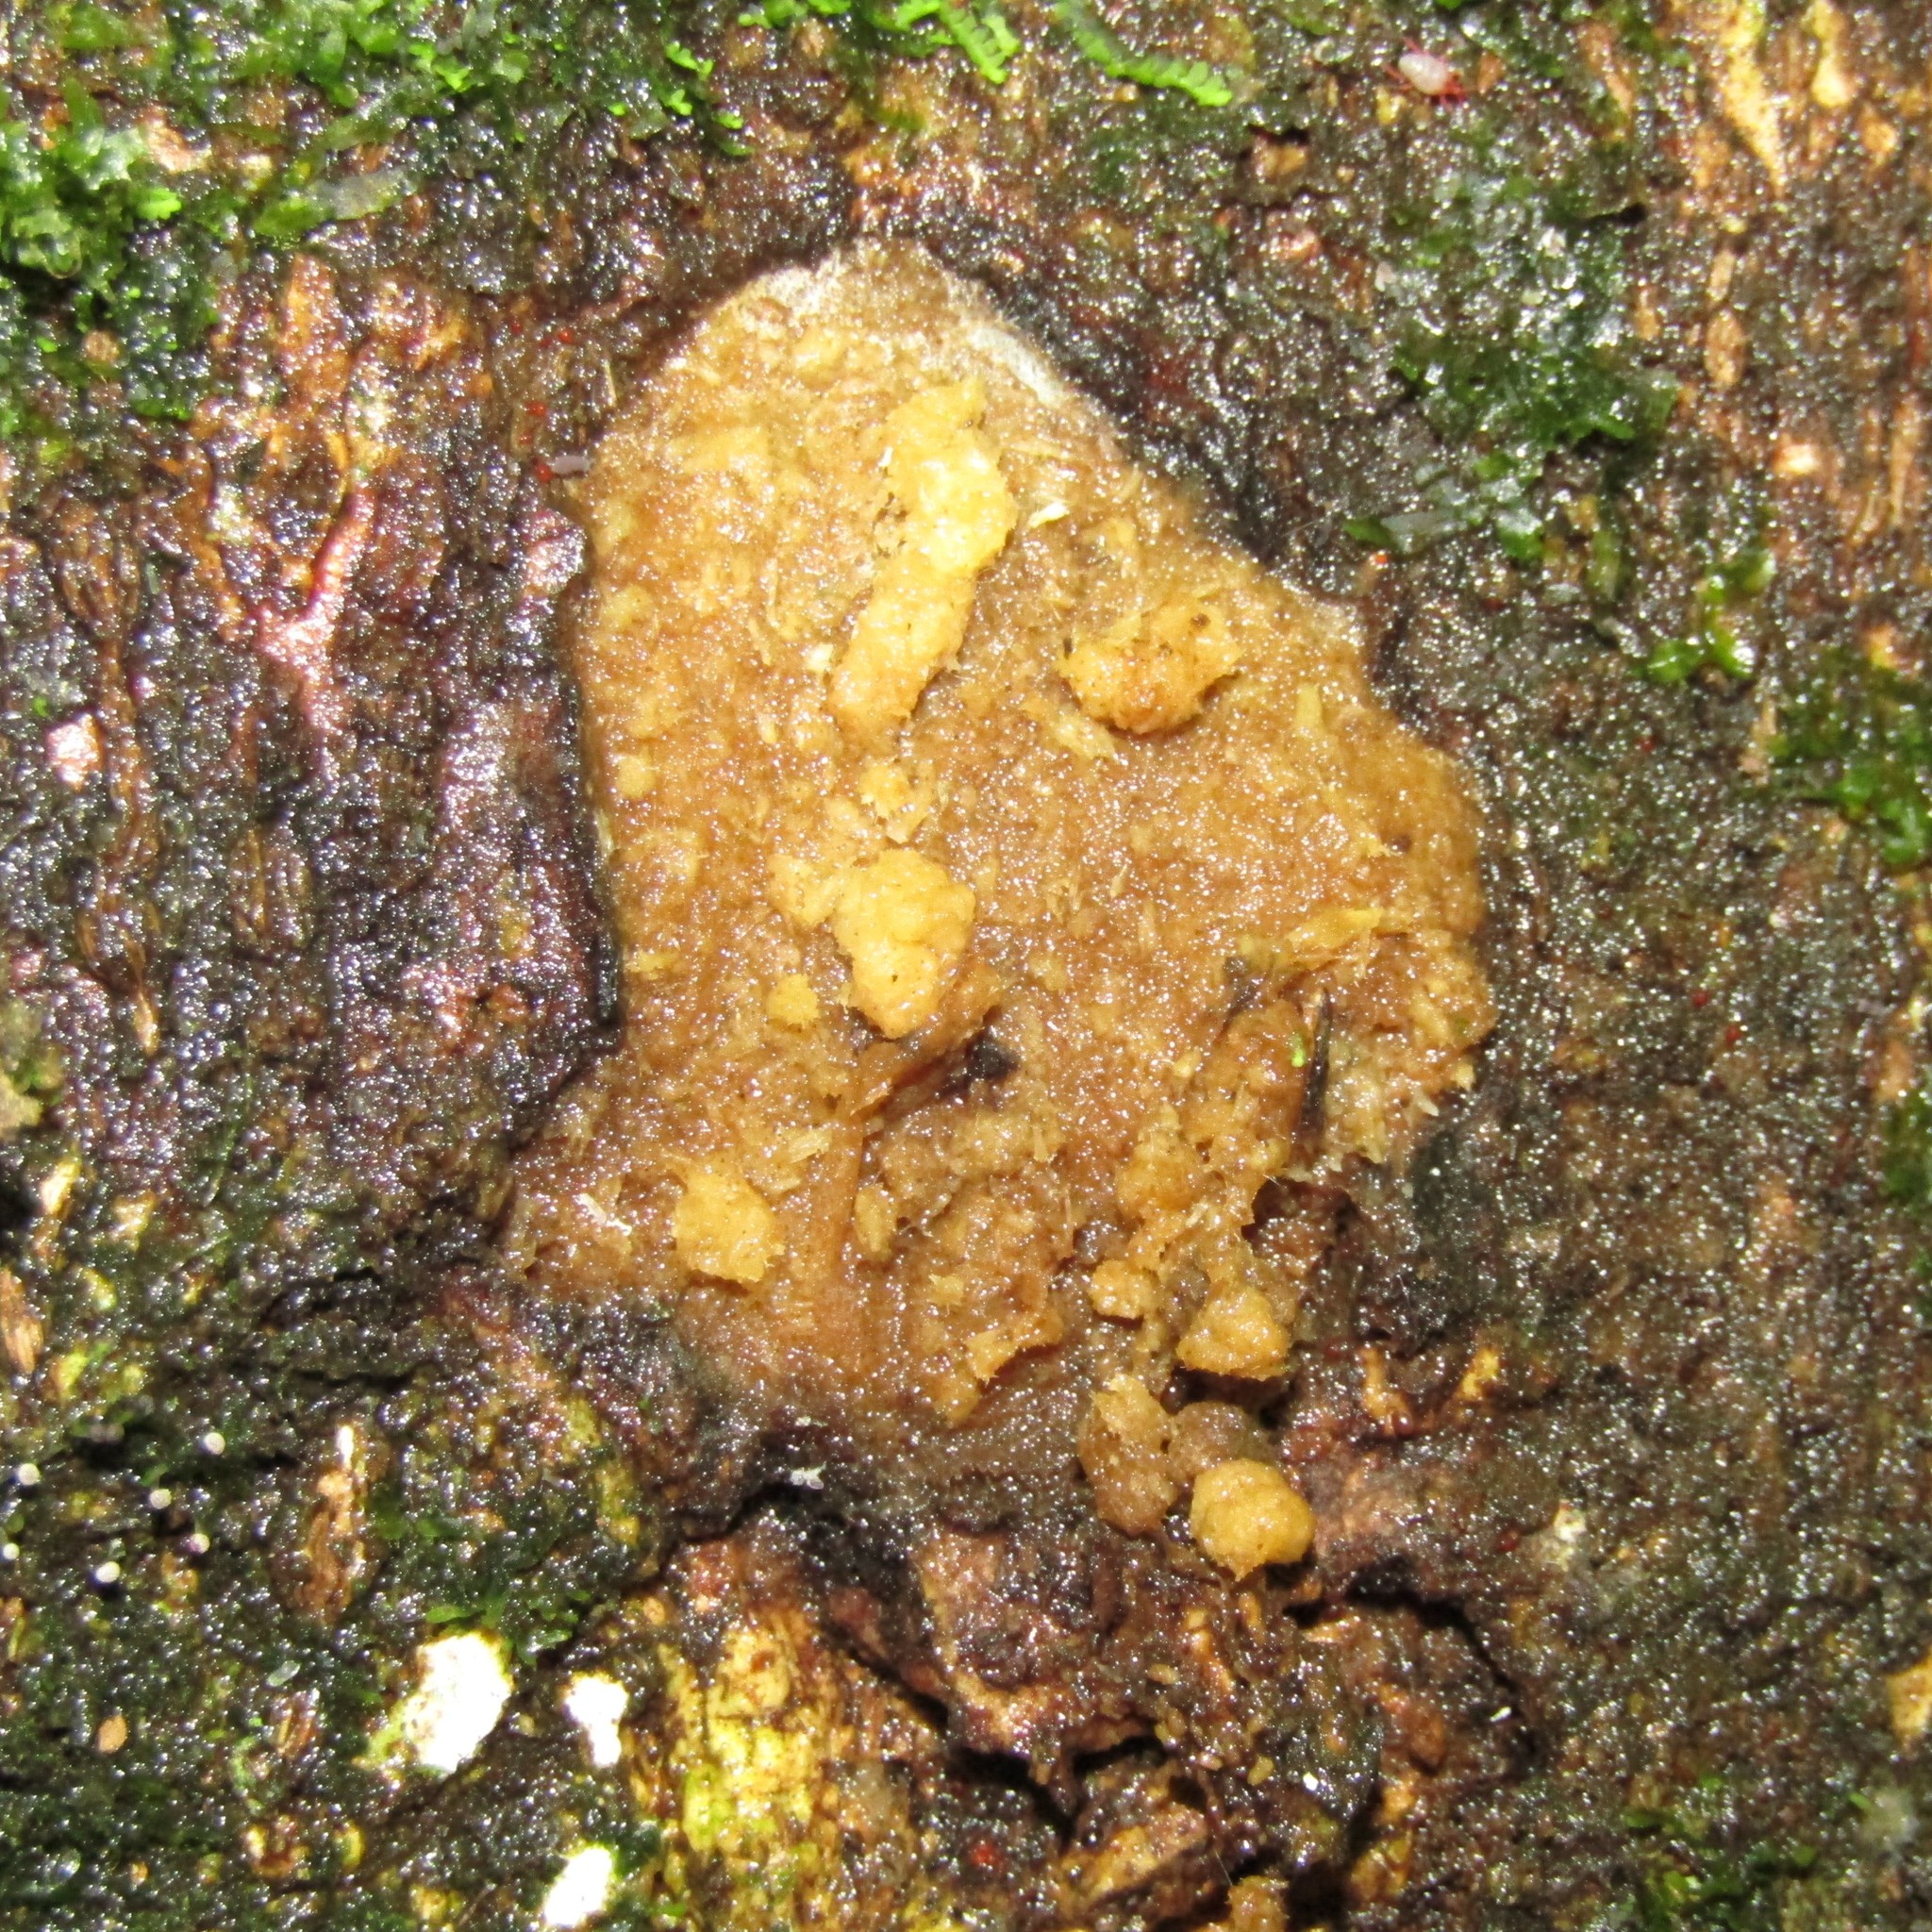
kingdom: Animalia
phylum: Arthropoda
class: Insecta
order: Lepidoptera
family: Hepialidae
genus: Aenetus
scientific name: Aenetus virescens
